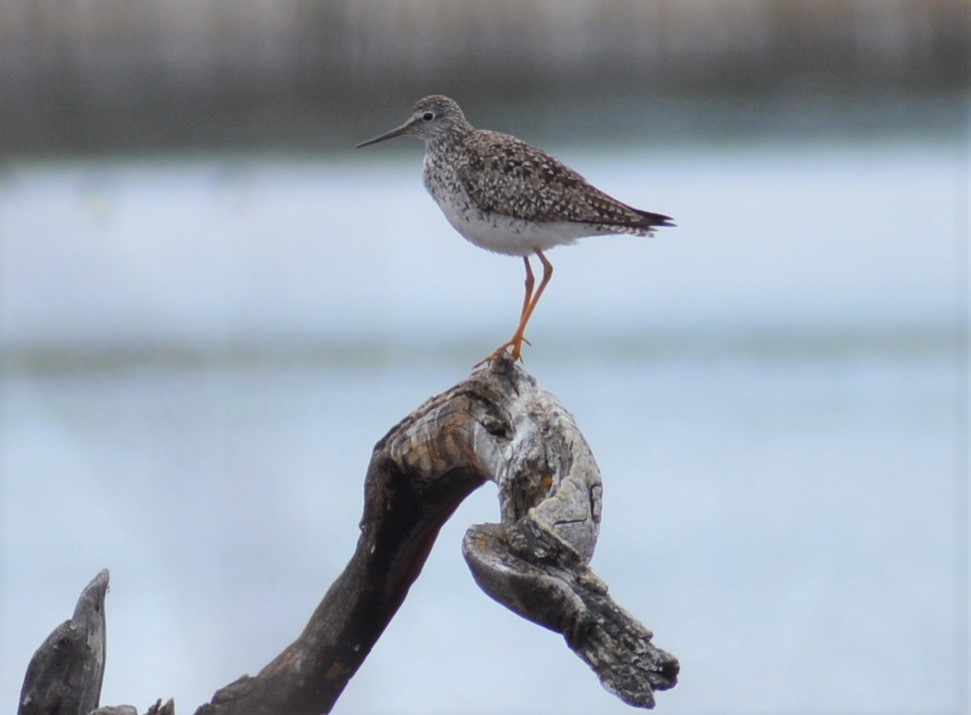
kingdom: Animalia
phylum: Chordata
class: Aves
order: Charadriiformes
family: Scolopacidae
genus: Tringa
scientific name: Tringa flavipes
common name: Lesser yellowlegs
